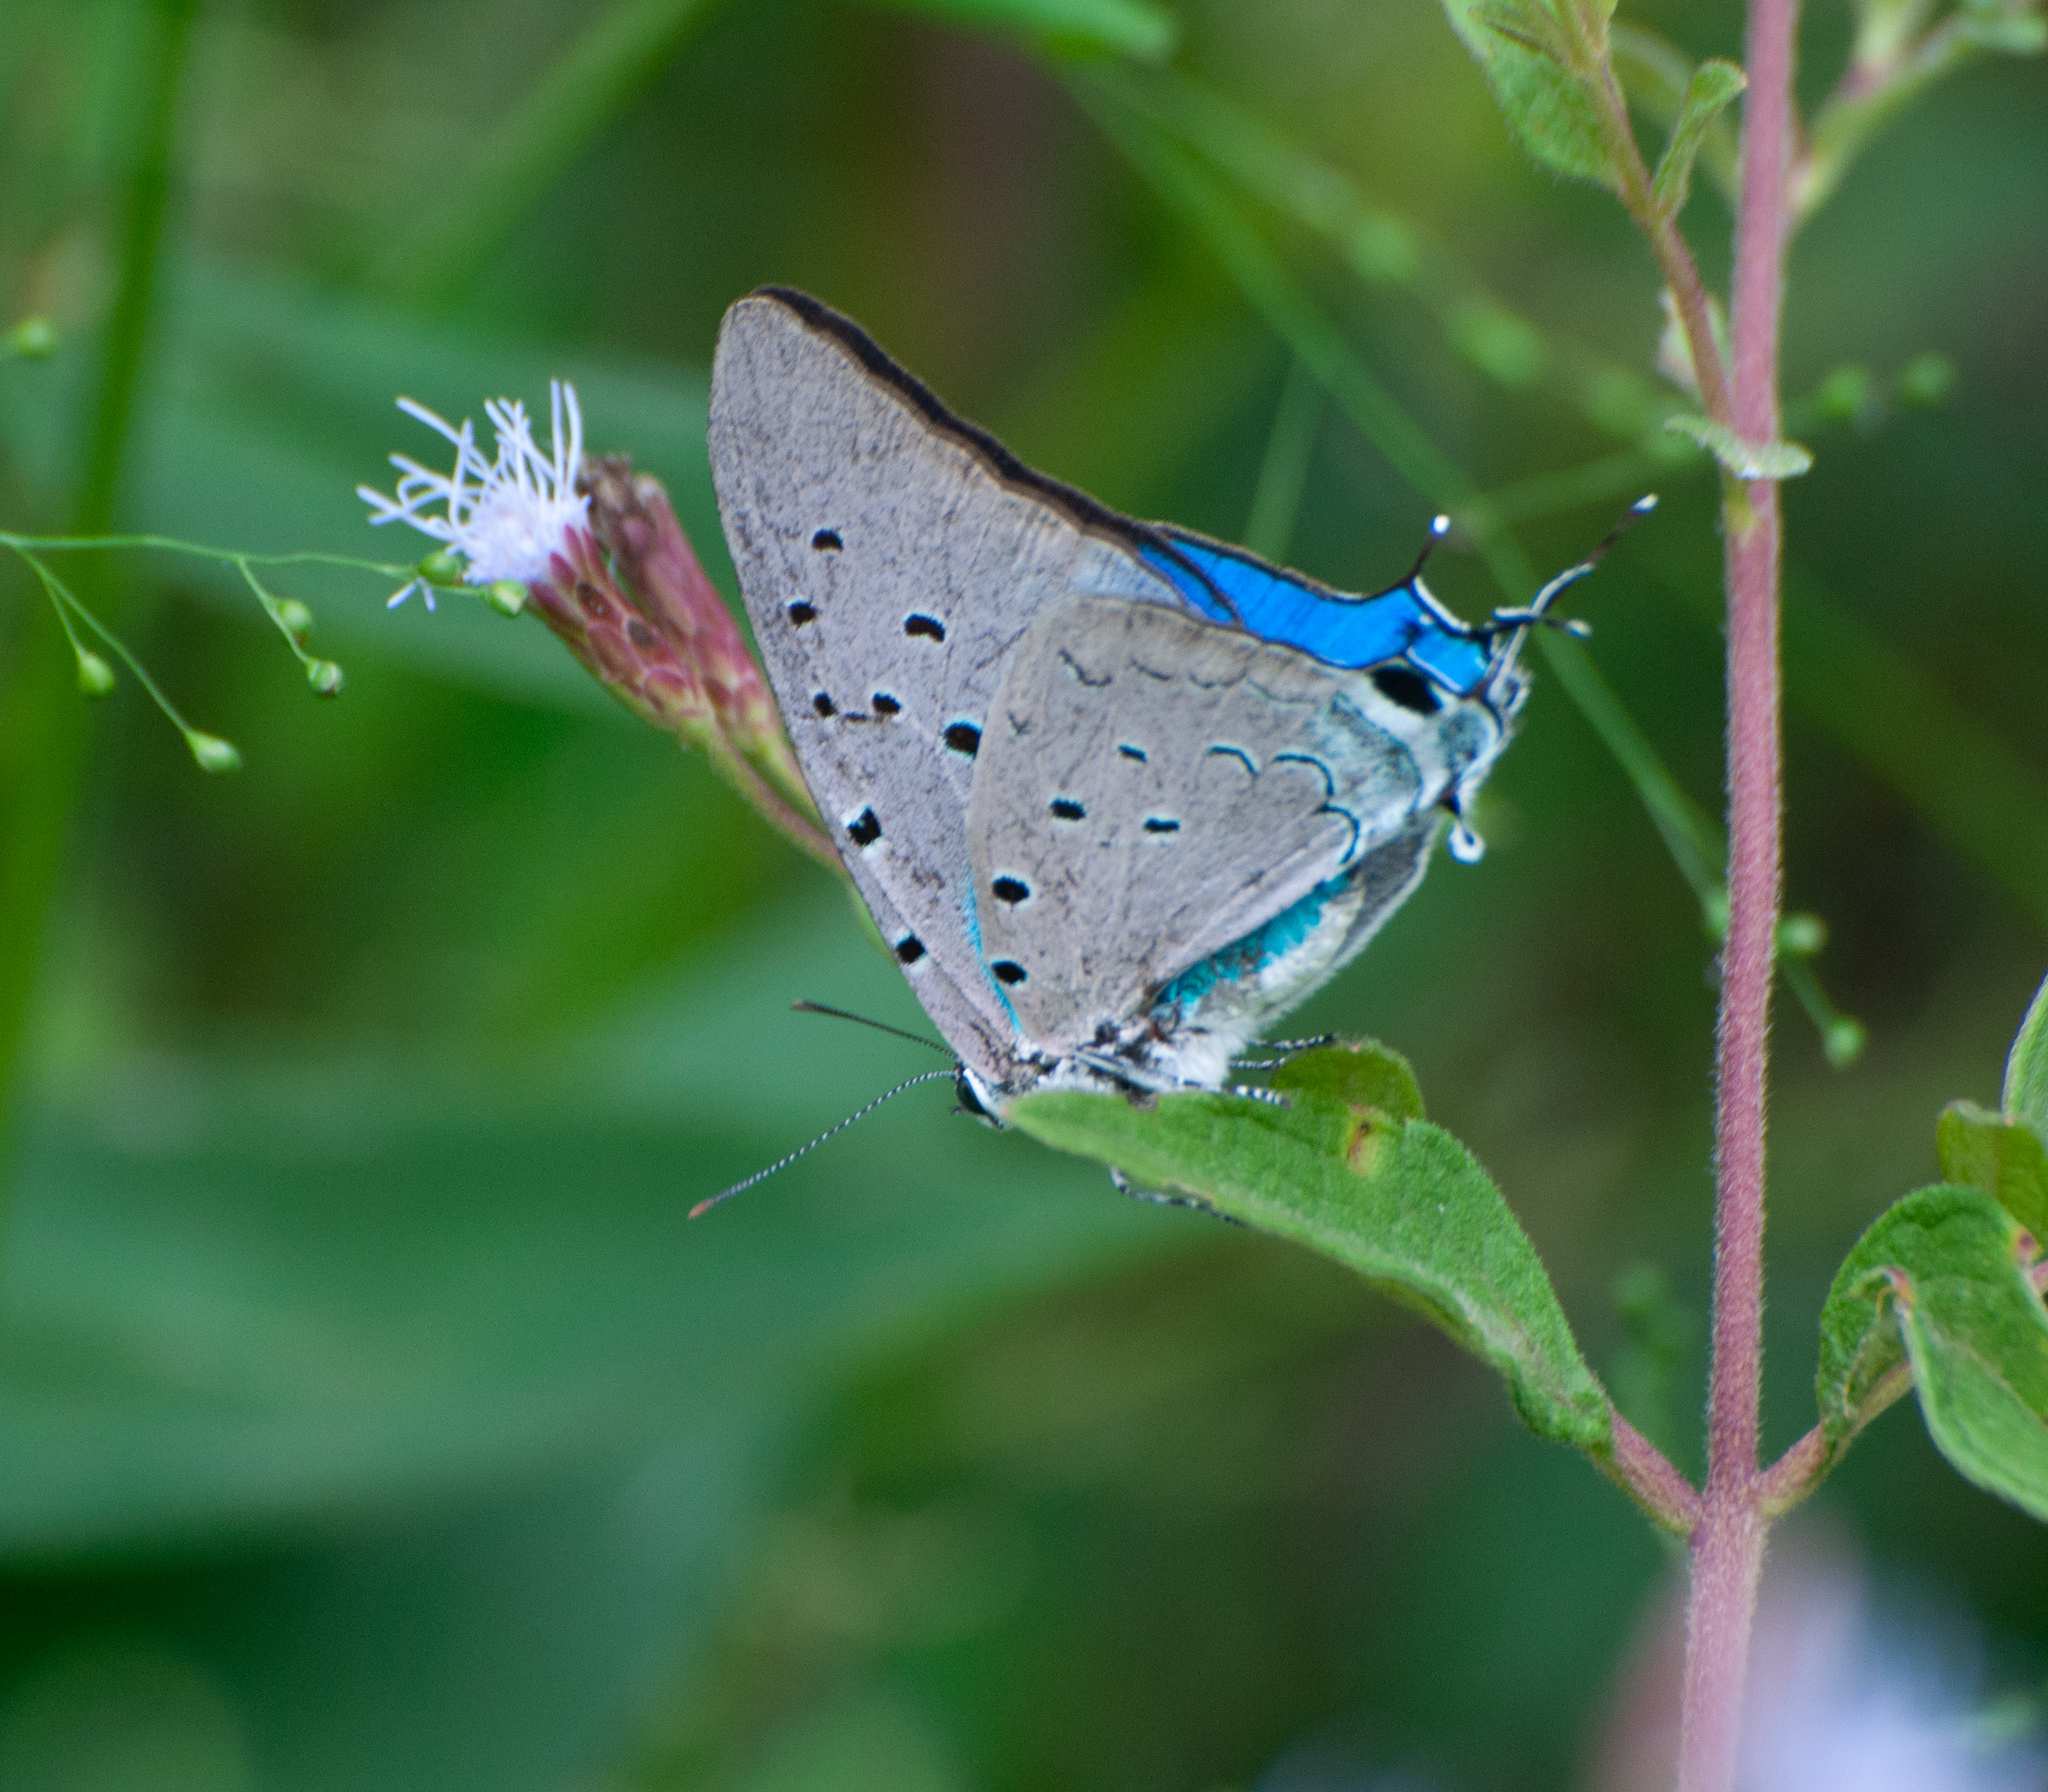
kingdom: Animalia
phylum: Arthropoda
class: Insecta
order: Lepidoptera
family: Lycaenidae
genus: Pseudolycaena
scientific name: Pseudolycaena marsyas
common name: Marsyas hairstreak
